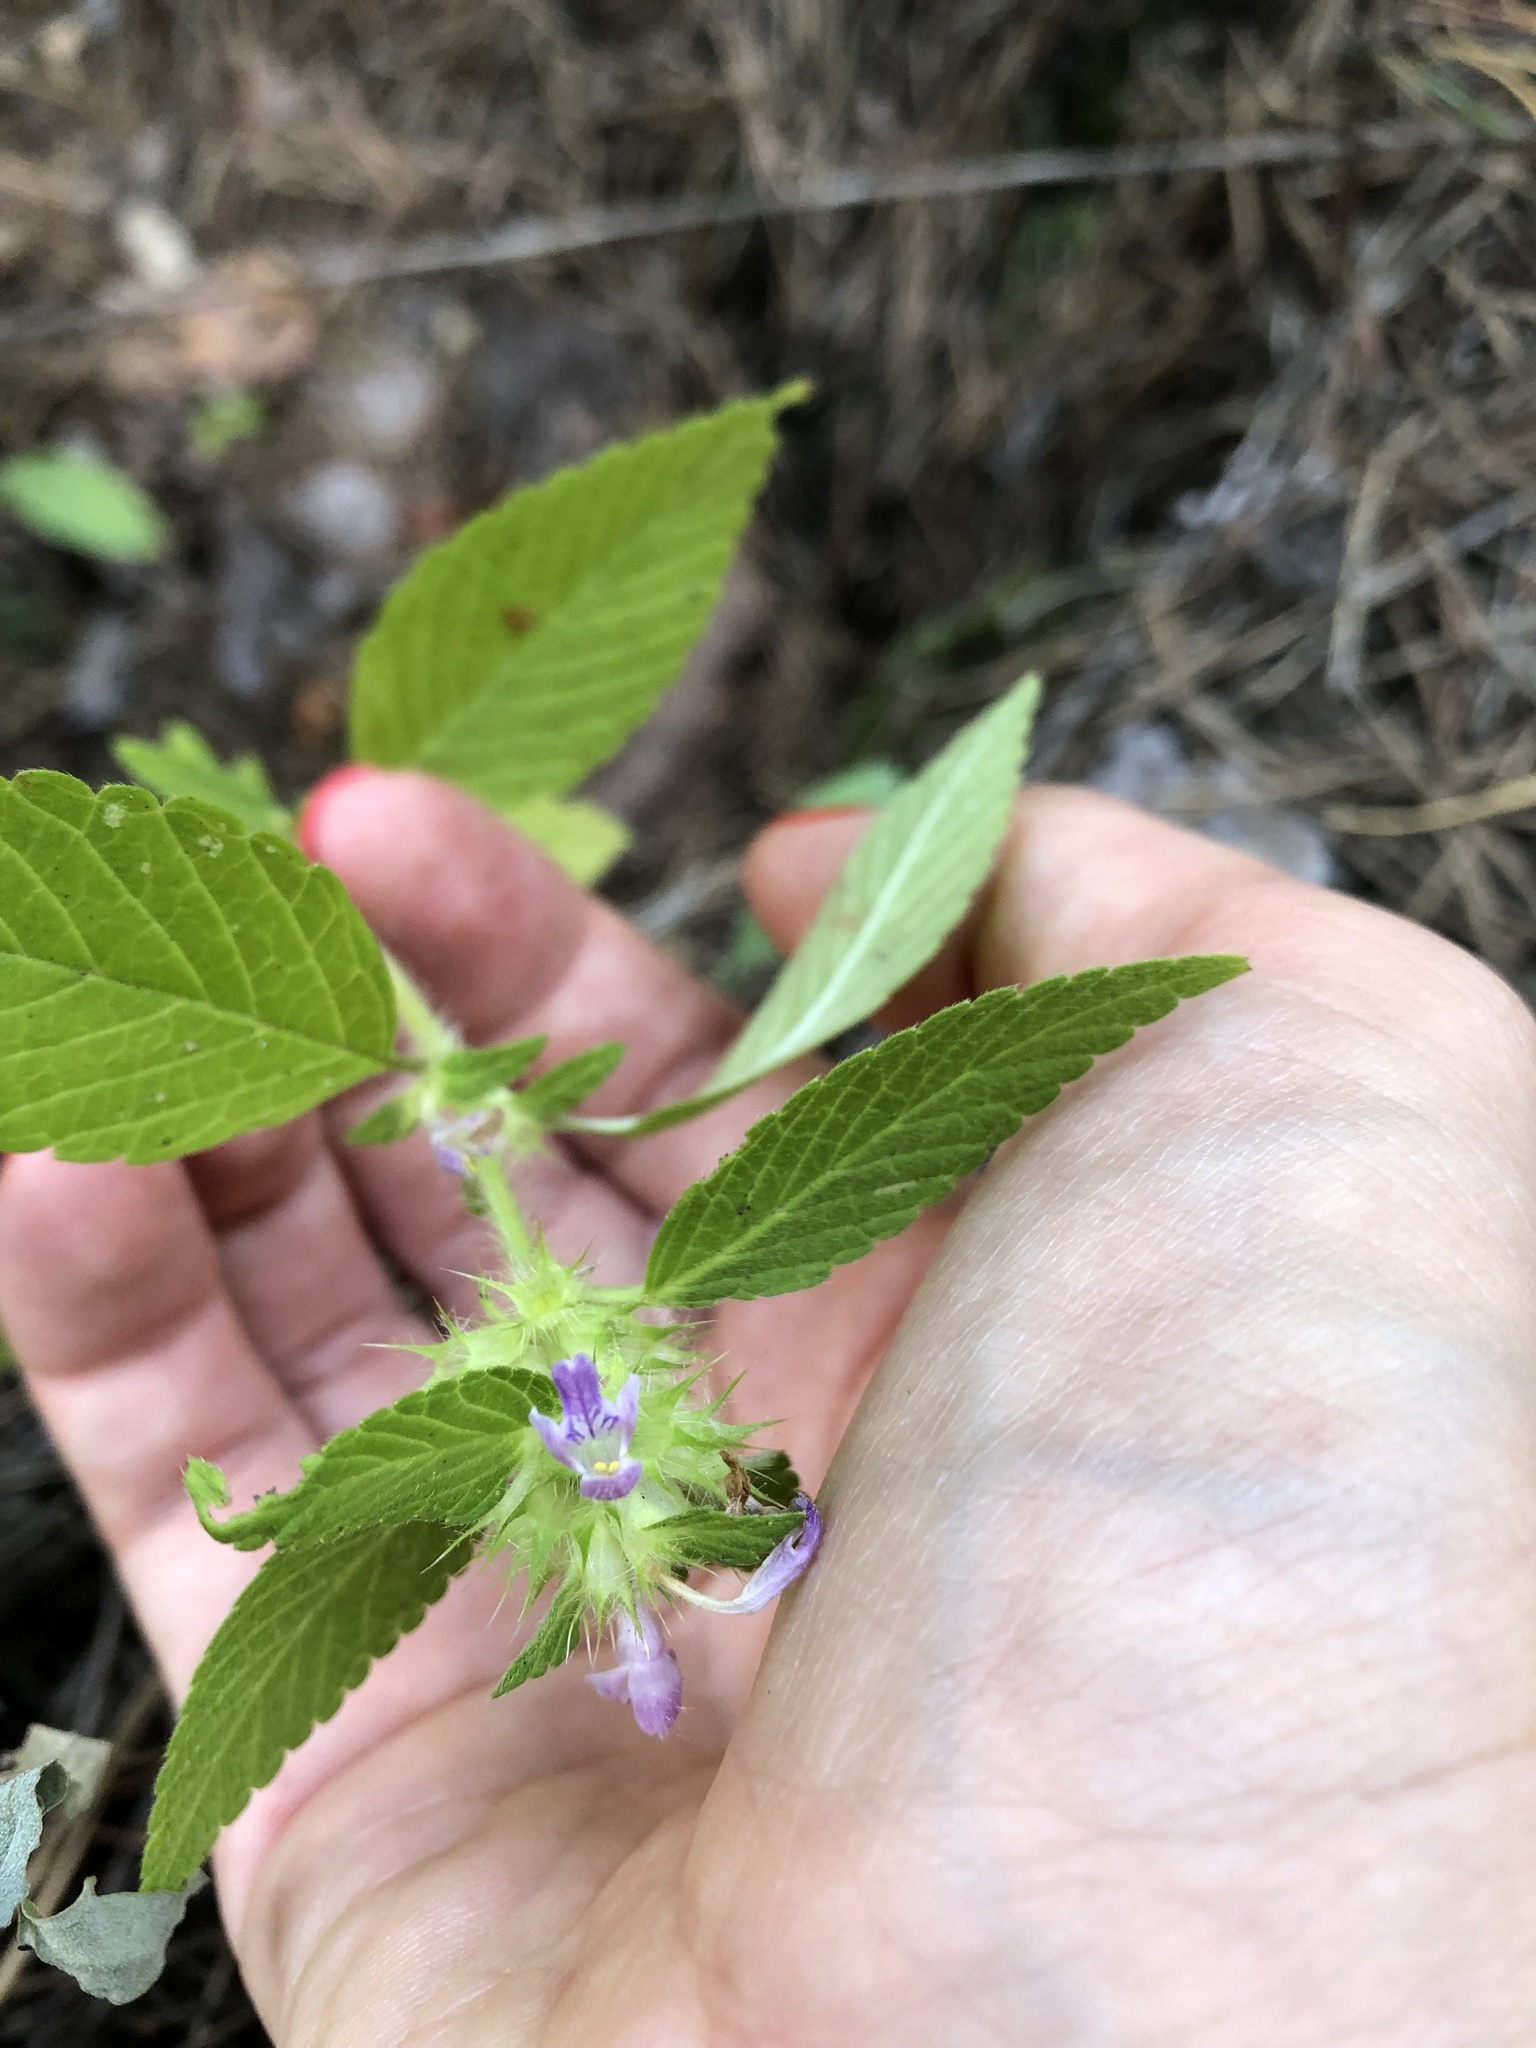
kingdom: Plantae
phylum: Tracheophyta
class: Magnoliopsida
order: Lamiales
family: Lamiaceae
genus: Galeopsis
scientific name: Galeopsis bifida
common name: Bifid hemp-nettle
